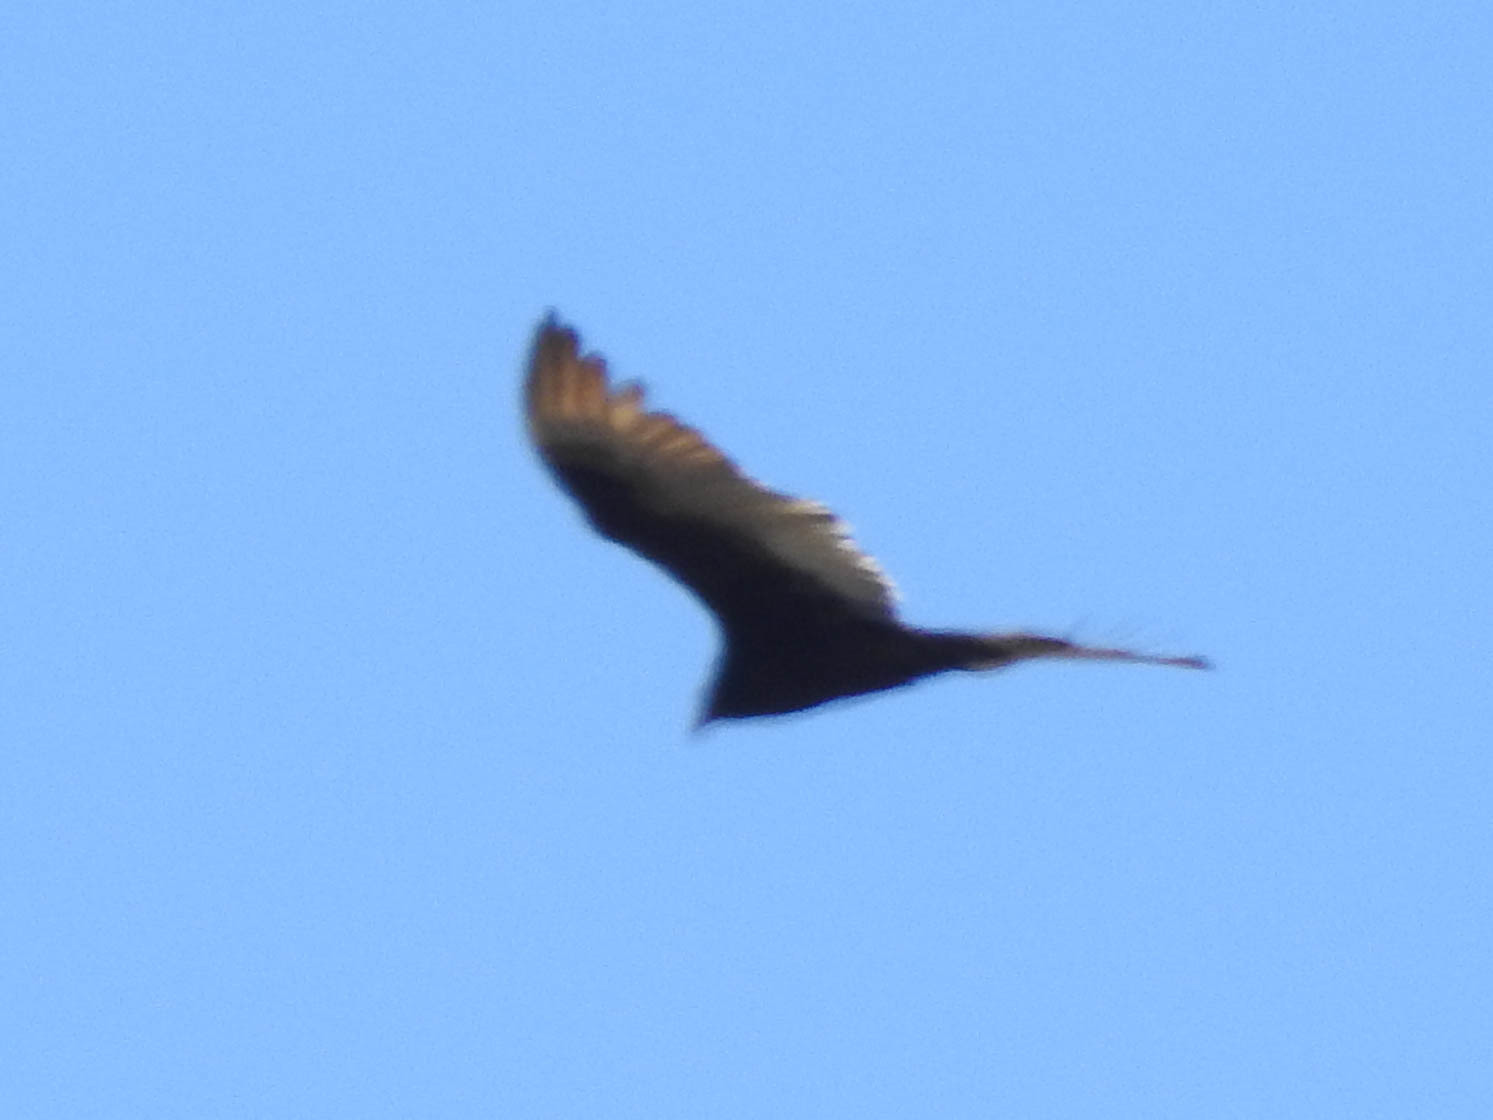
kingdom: Animalia
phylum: Chordata
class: Aves
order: Accipitriformes
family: Cathartidae
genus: Cathartes
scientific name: Cathartes aura
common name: Turkey vulture
